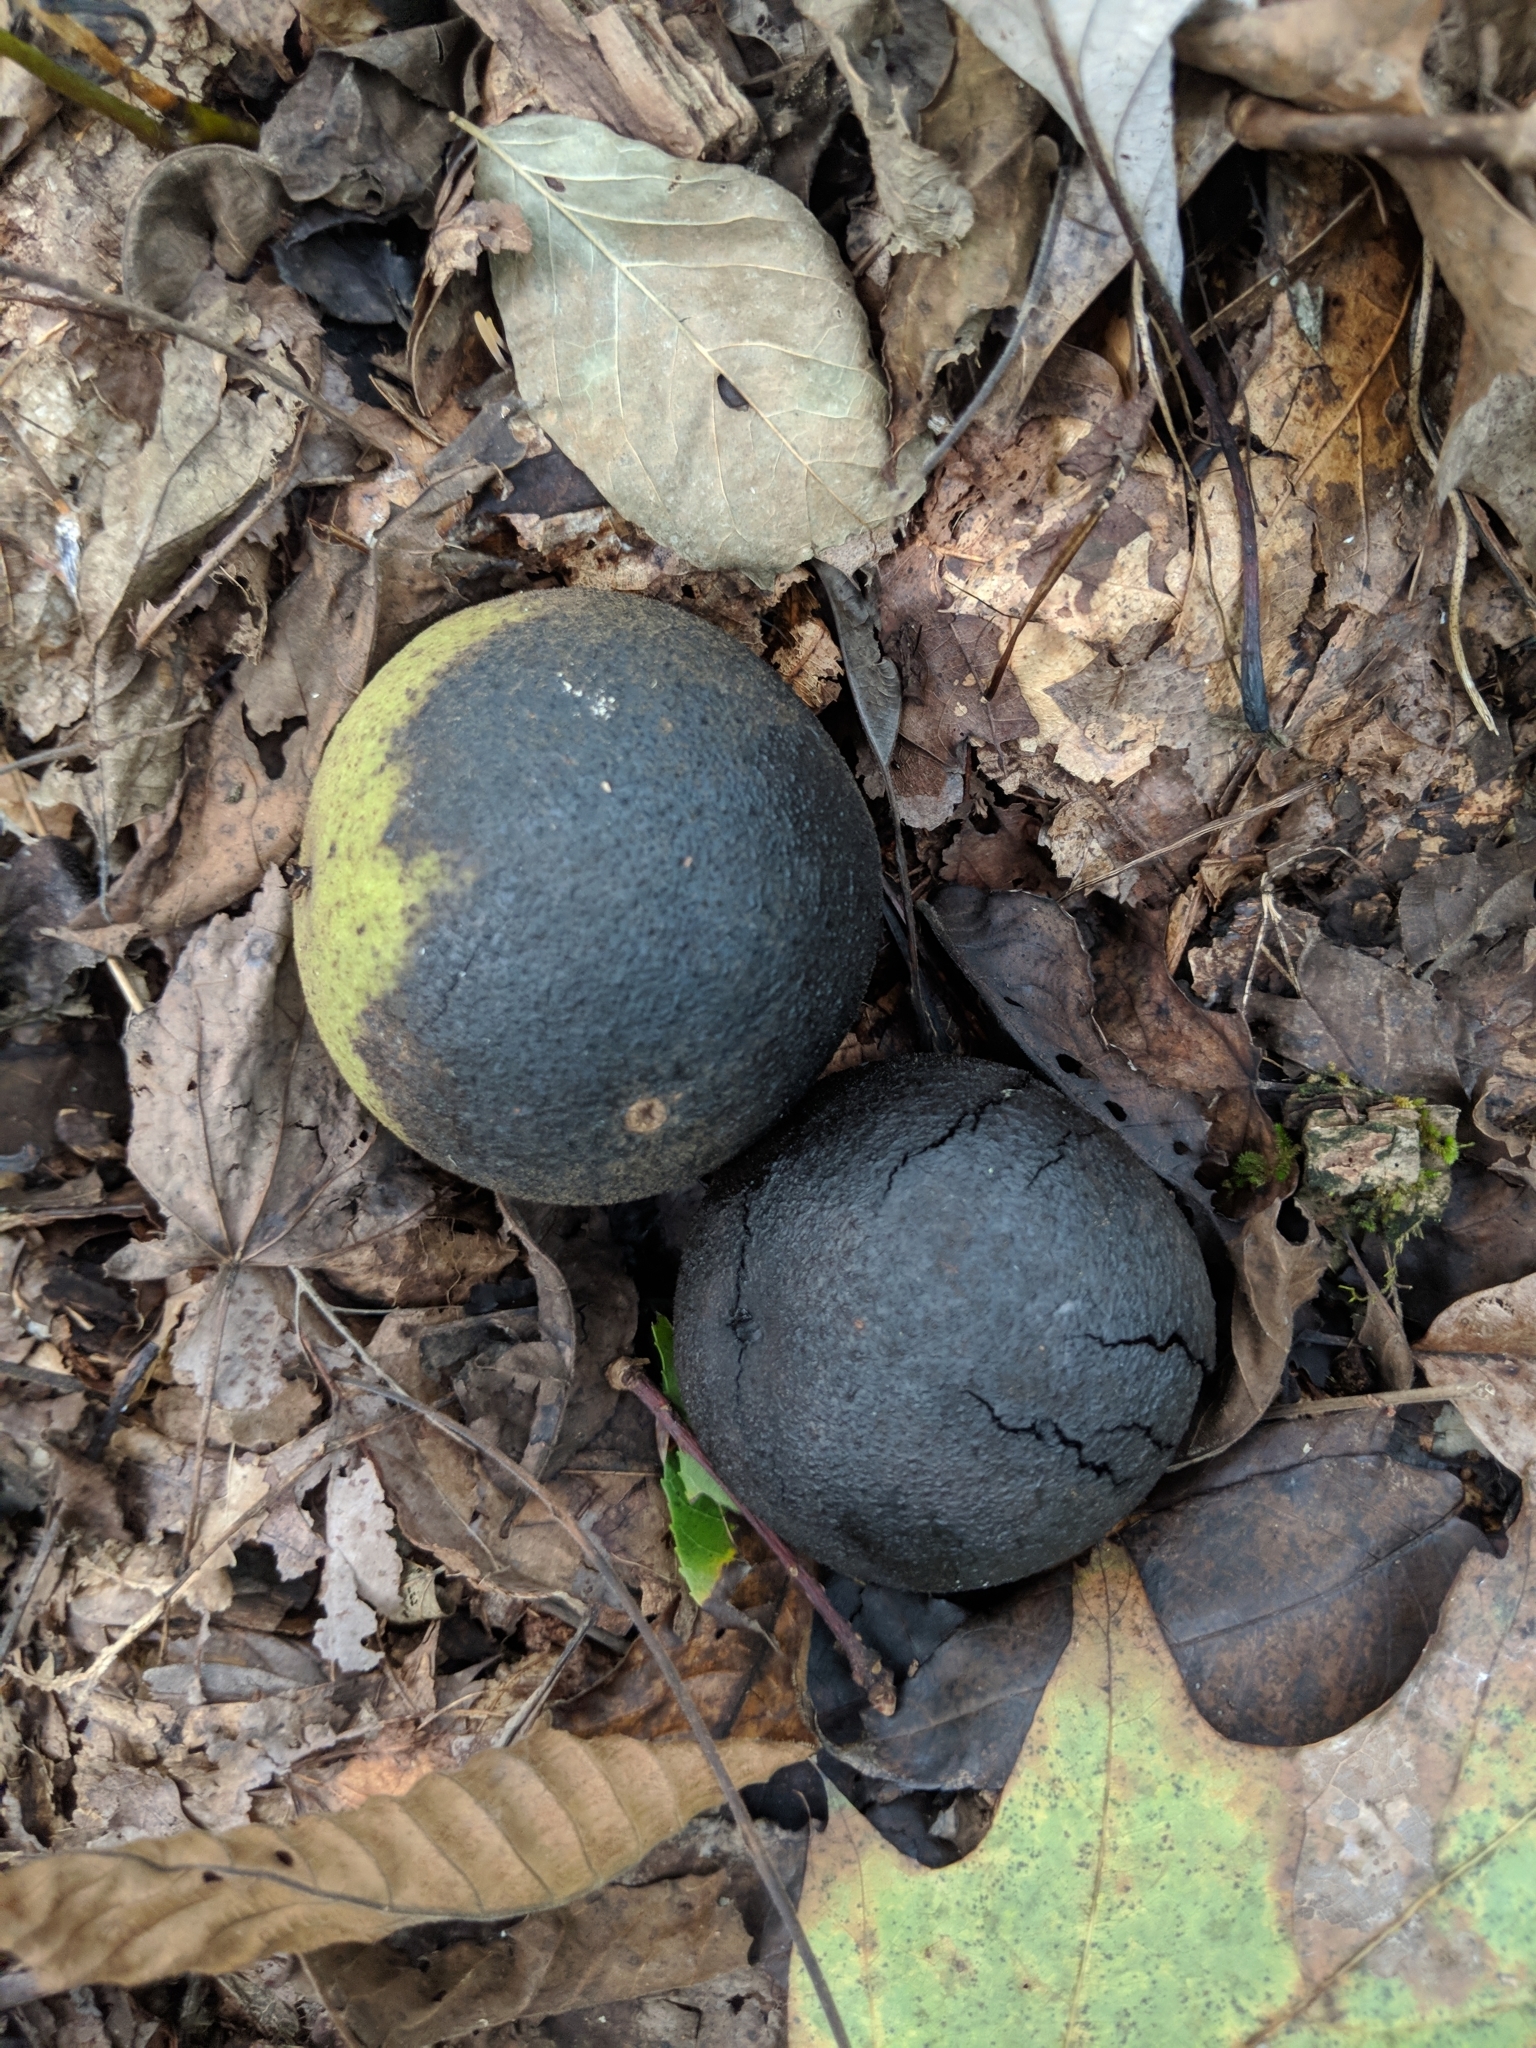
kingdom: Plantae
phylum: Tracheophyta
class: Magnoliopsida
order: Fagales
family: Juglandaceae
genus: Juglans
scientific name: Juglans nigra
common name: Black walnut
